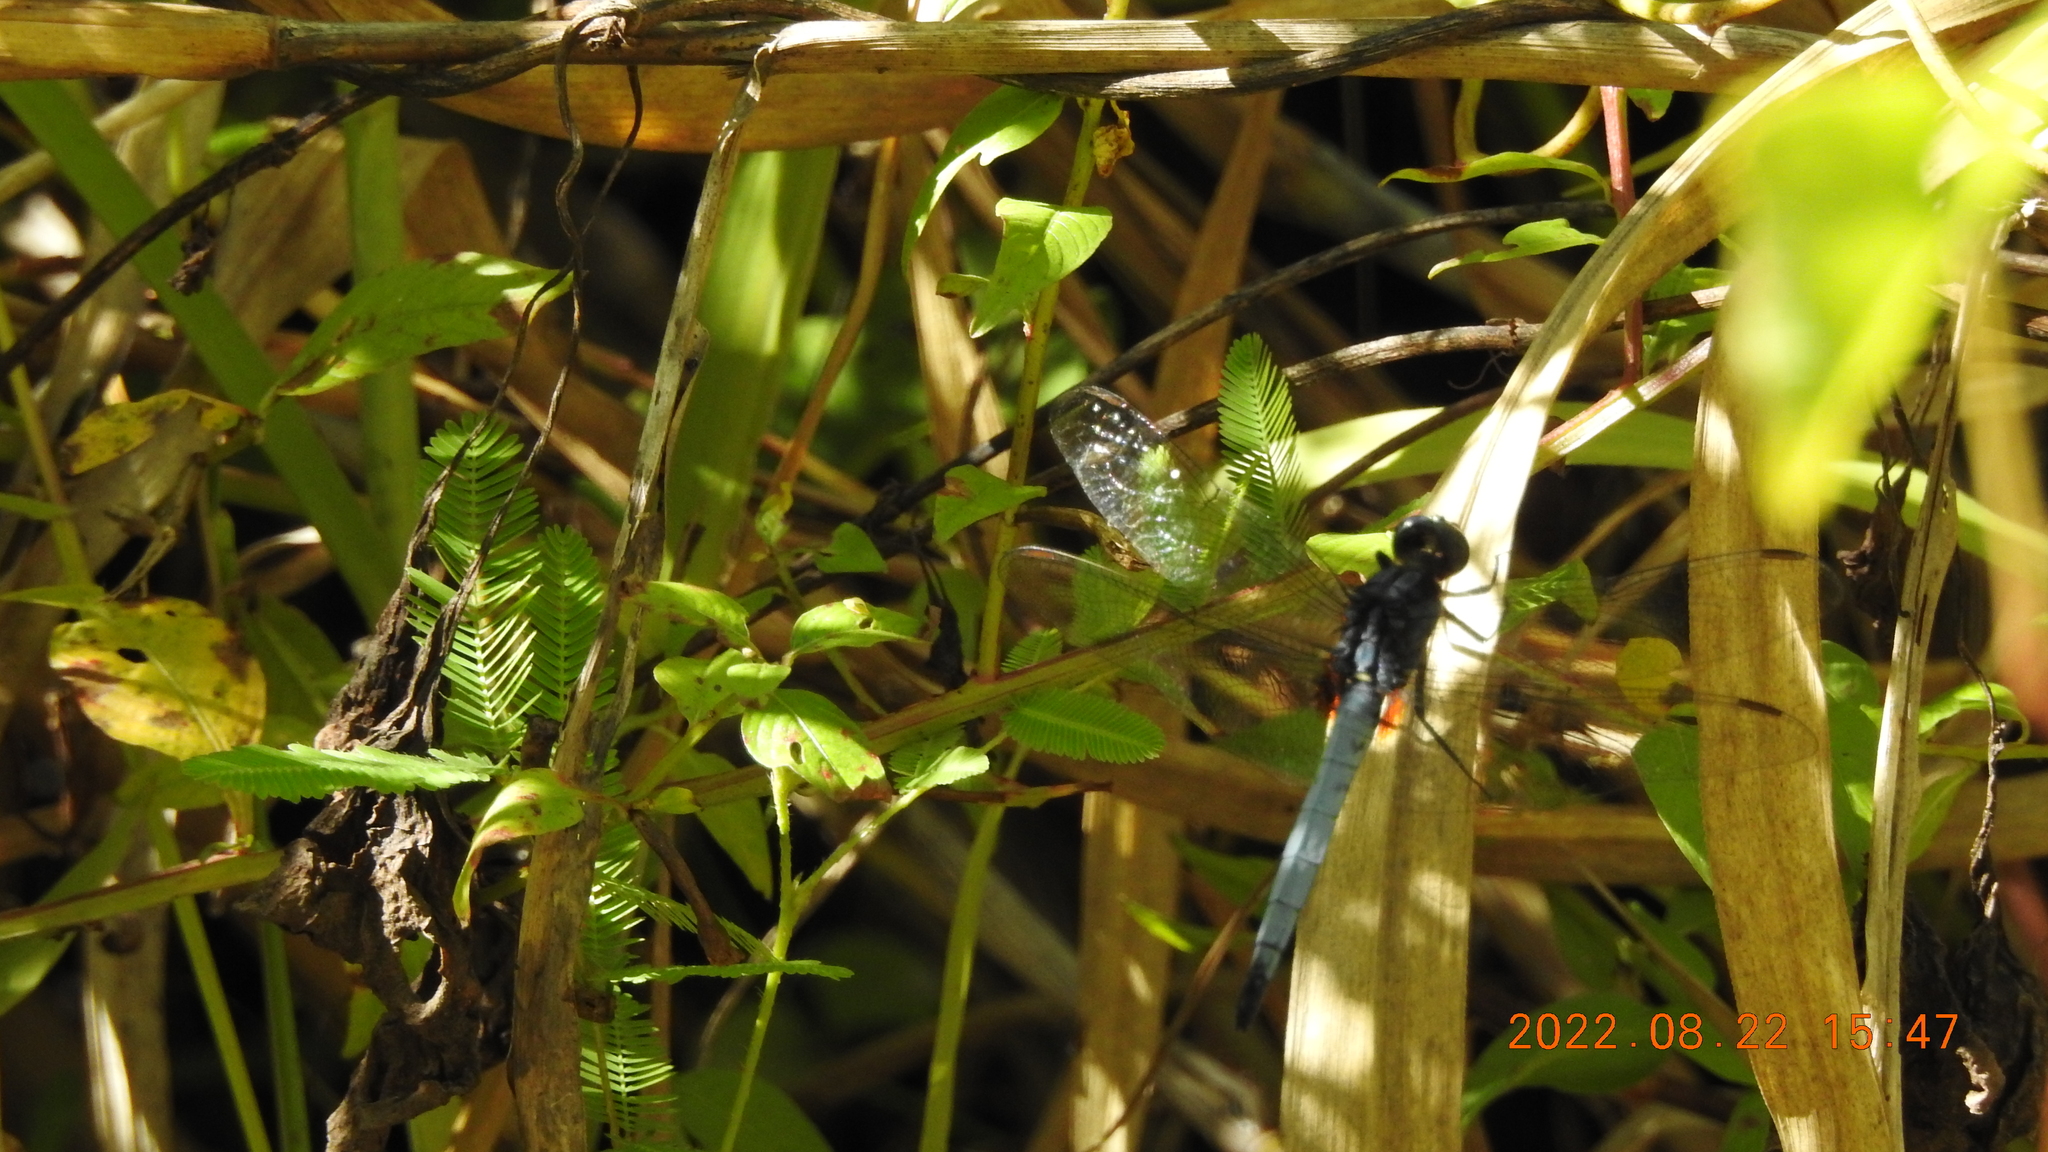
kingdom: Animalia
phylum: Arthropoda
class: Insecta
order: Odonata
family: Libellulidae
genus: Orthetrum
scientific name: Orthetrum glaucum
